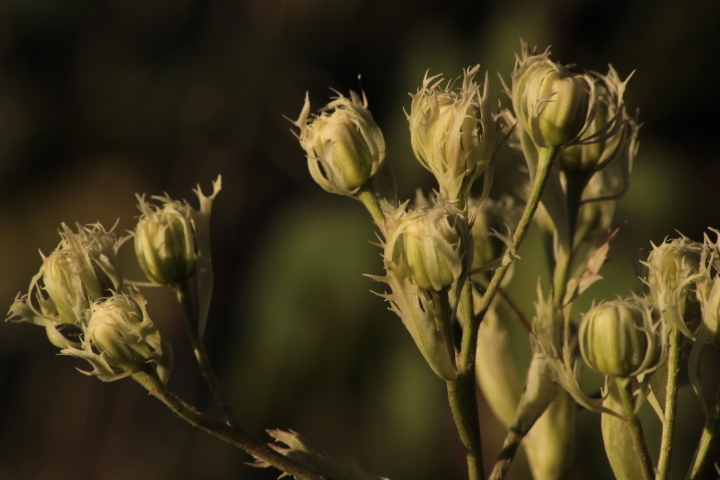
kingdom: Plantae
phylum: Tracheophyta
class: Magnoliopsida
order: Asterales
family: Asteraceae
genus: Psacalium
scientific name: Psacalium platylepis
